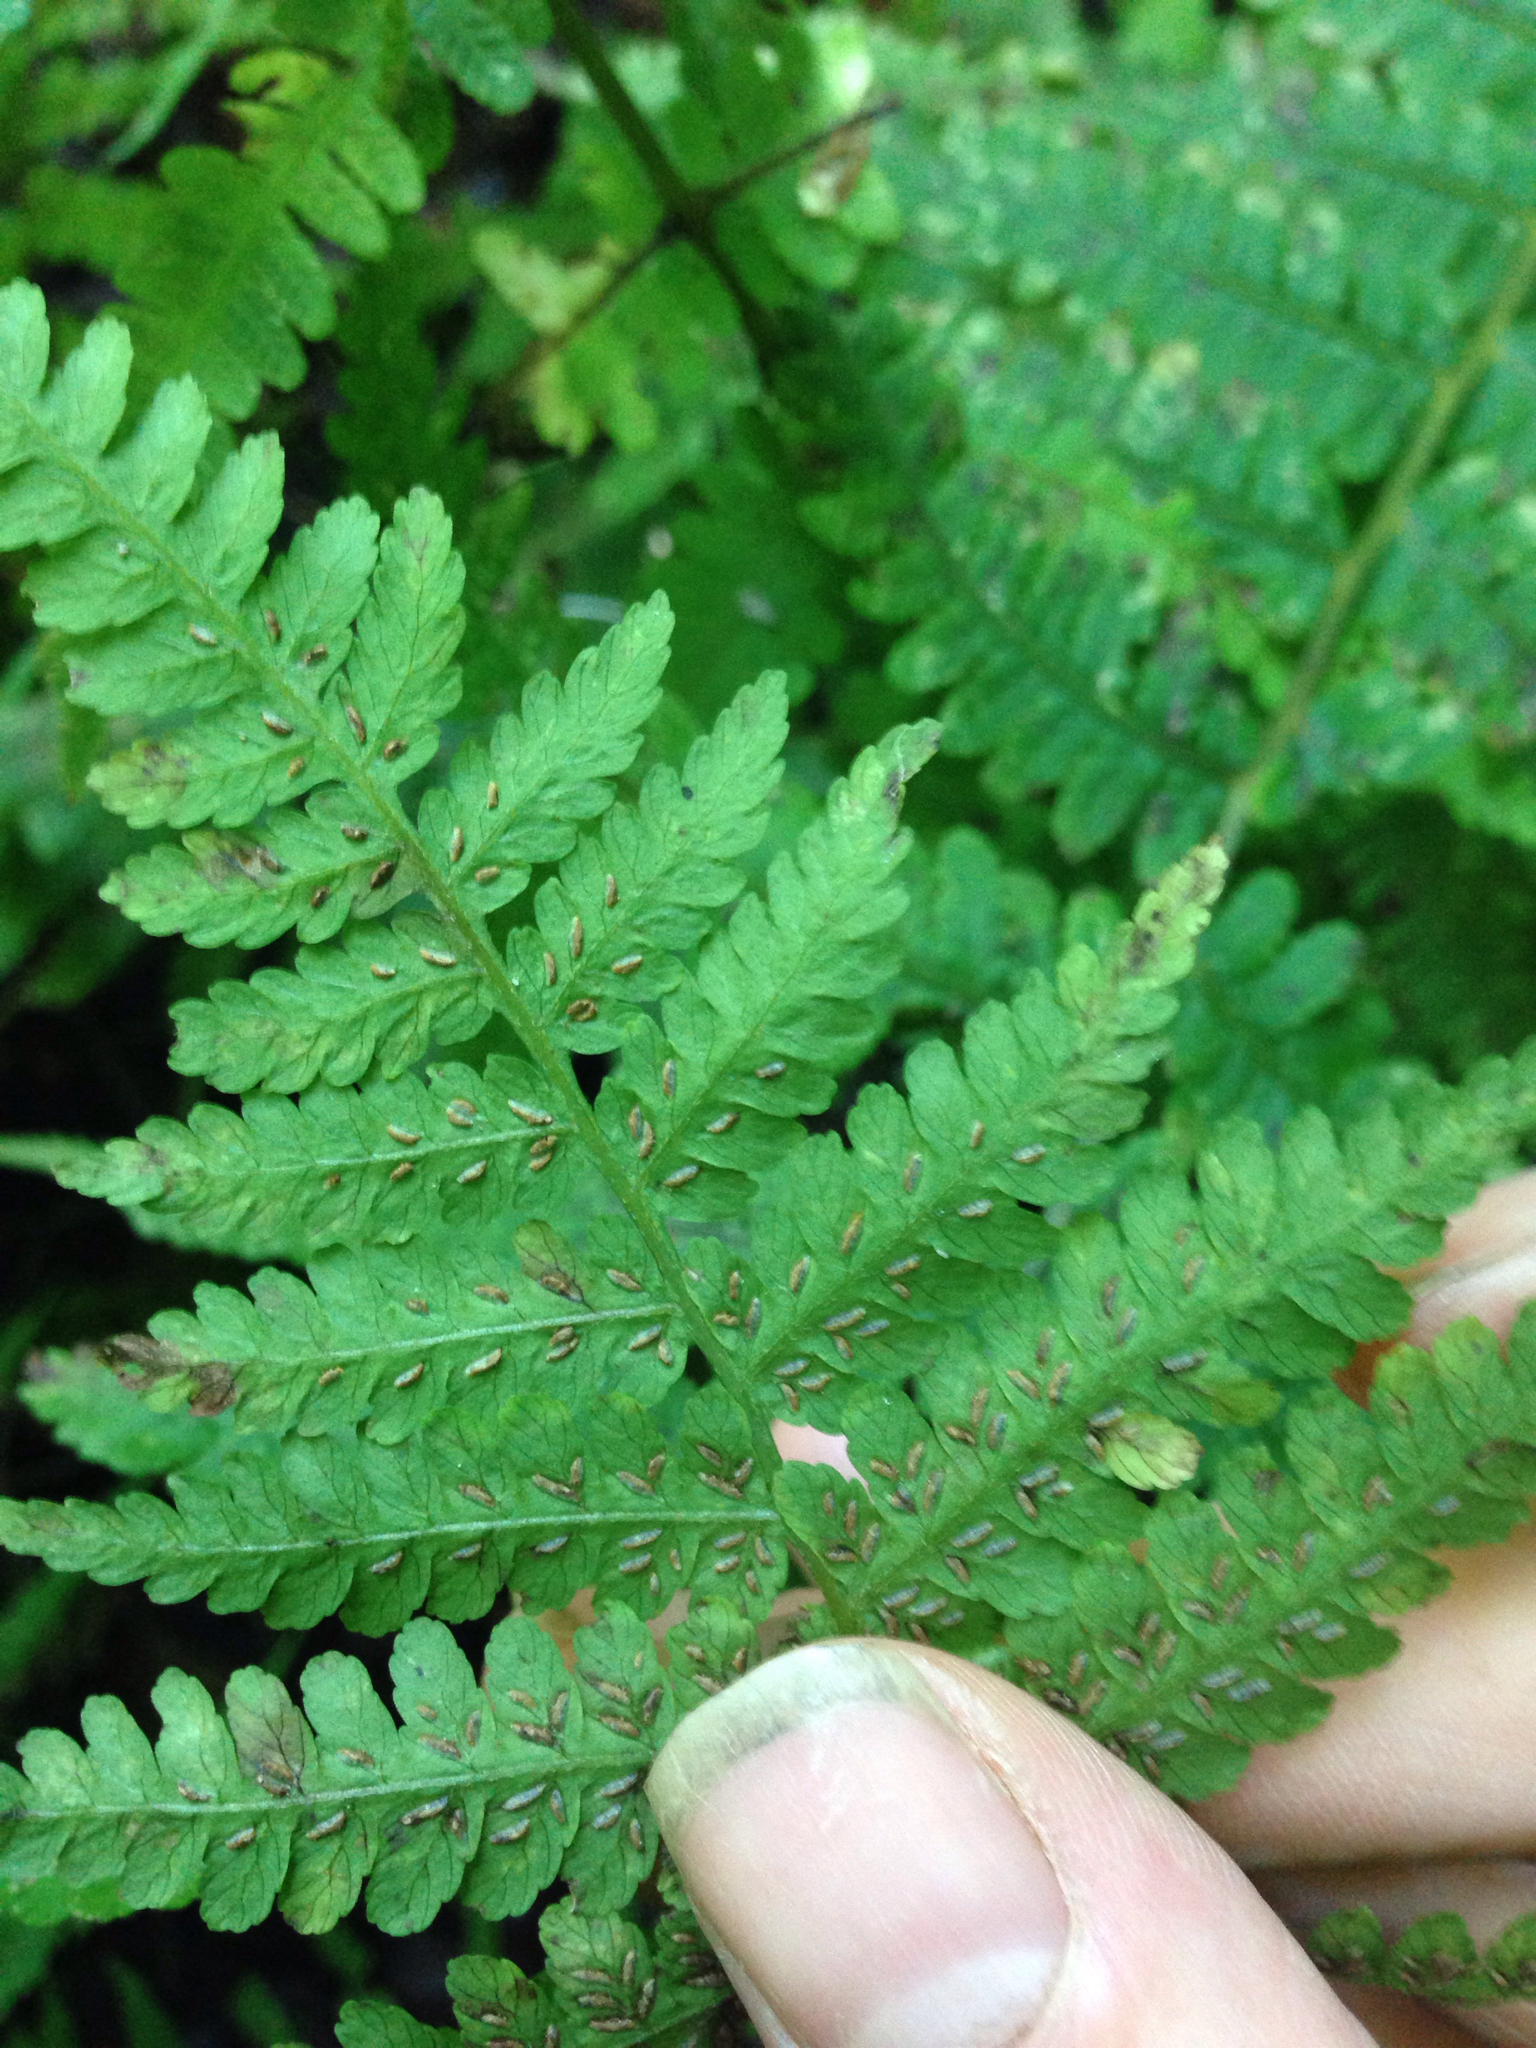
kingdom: Plantae
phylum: Tracheophyta
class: Polypodiopsida
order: Polypodiales
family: Athyriaceae
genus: Deparia
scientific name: Deparia acrostichoides
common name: Silver false spleenwort
